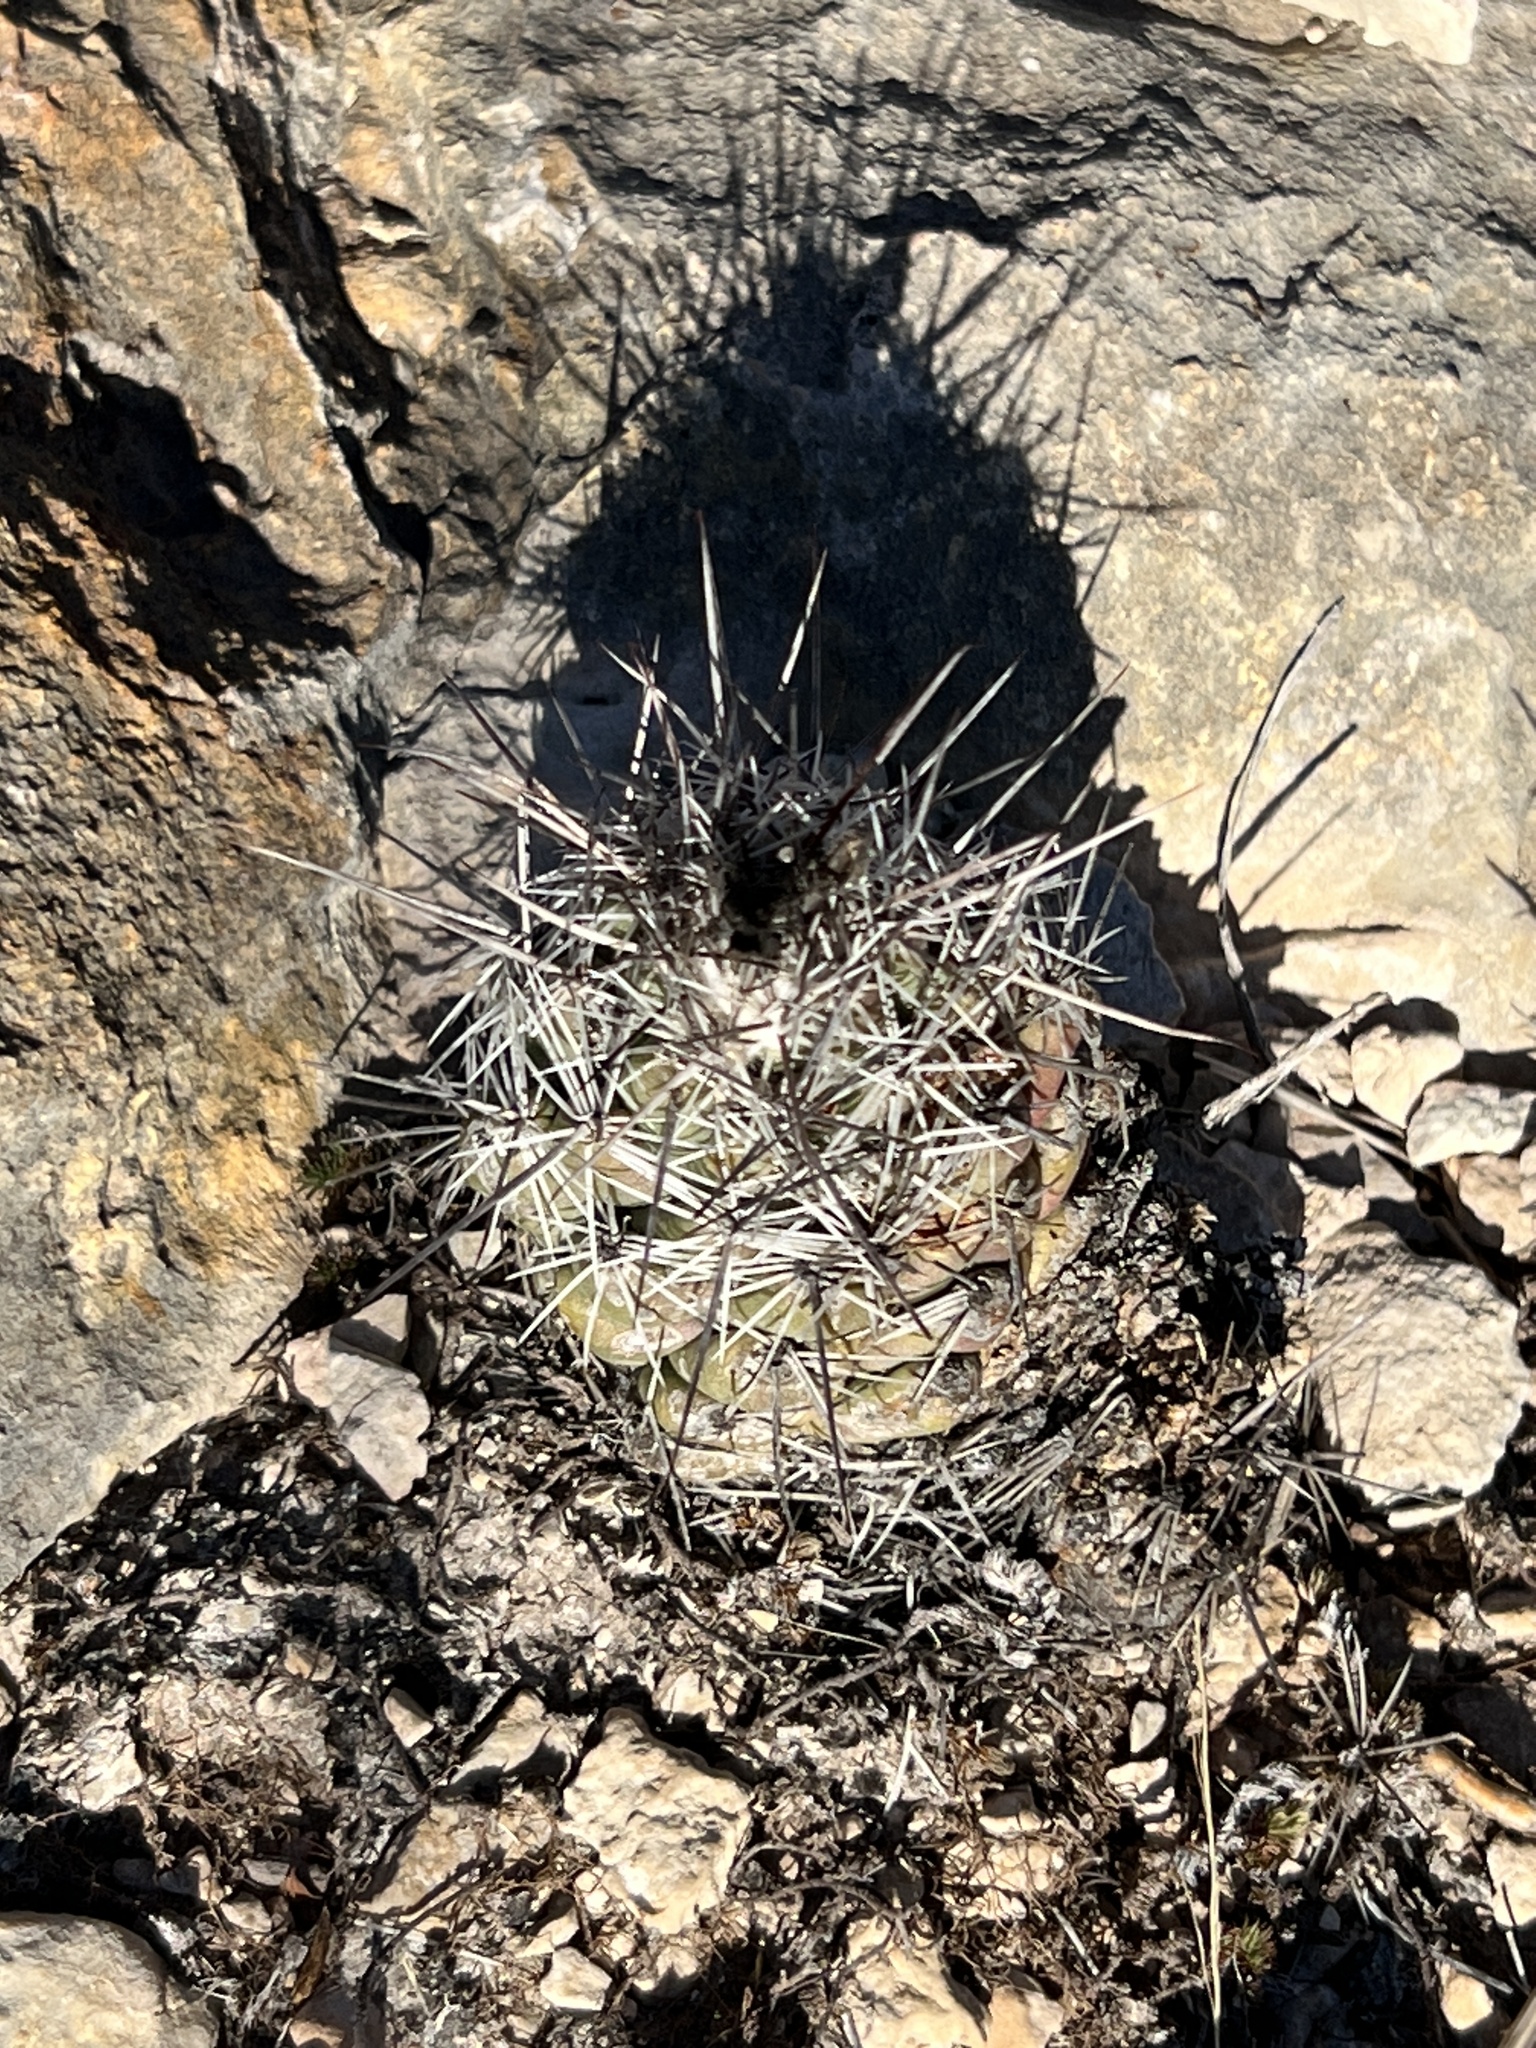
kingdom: Plantae
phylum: Tracheophyta
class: Magnoliopsida
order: Caryophyllales
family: Cactaceae
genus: Cochemiea
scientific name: Cochemiea conoidea
